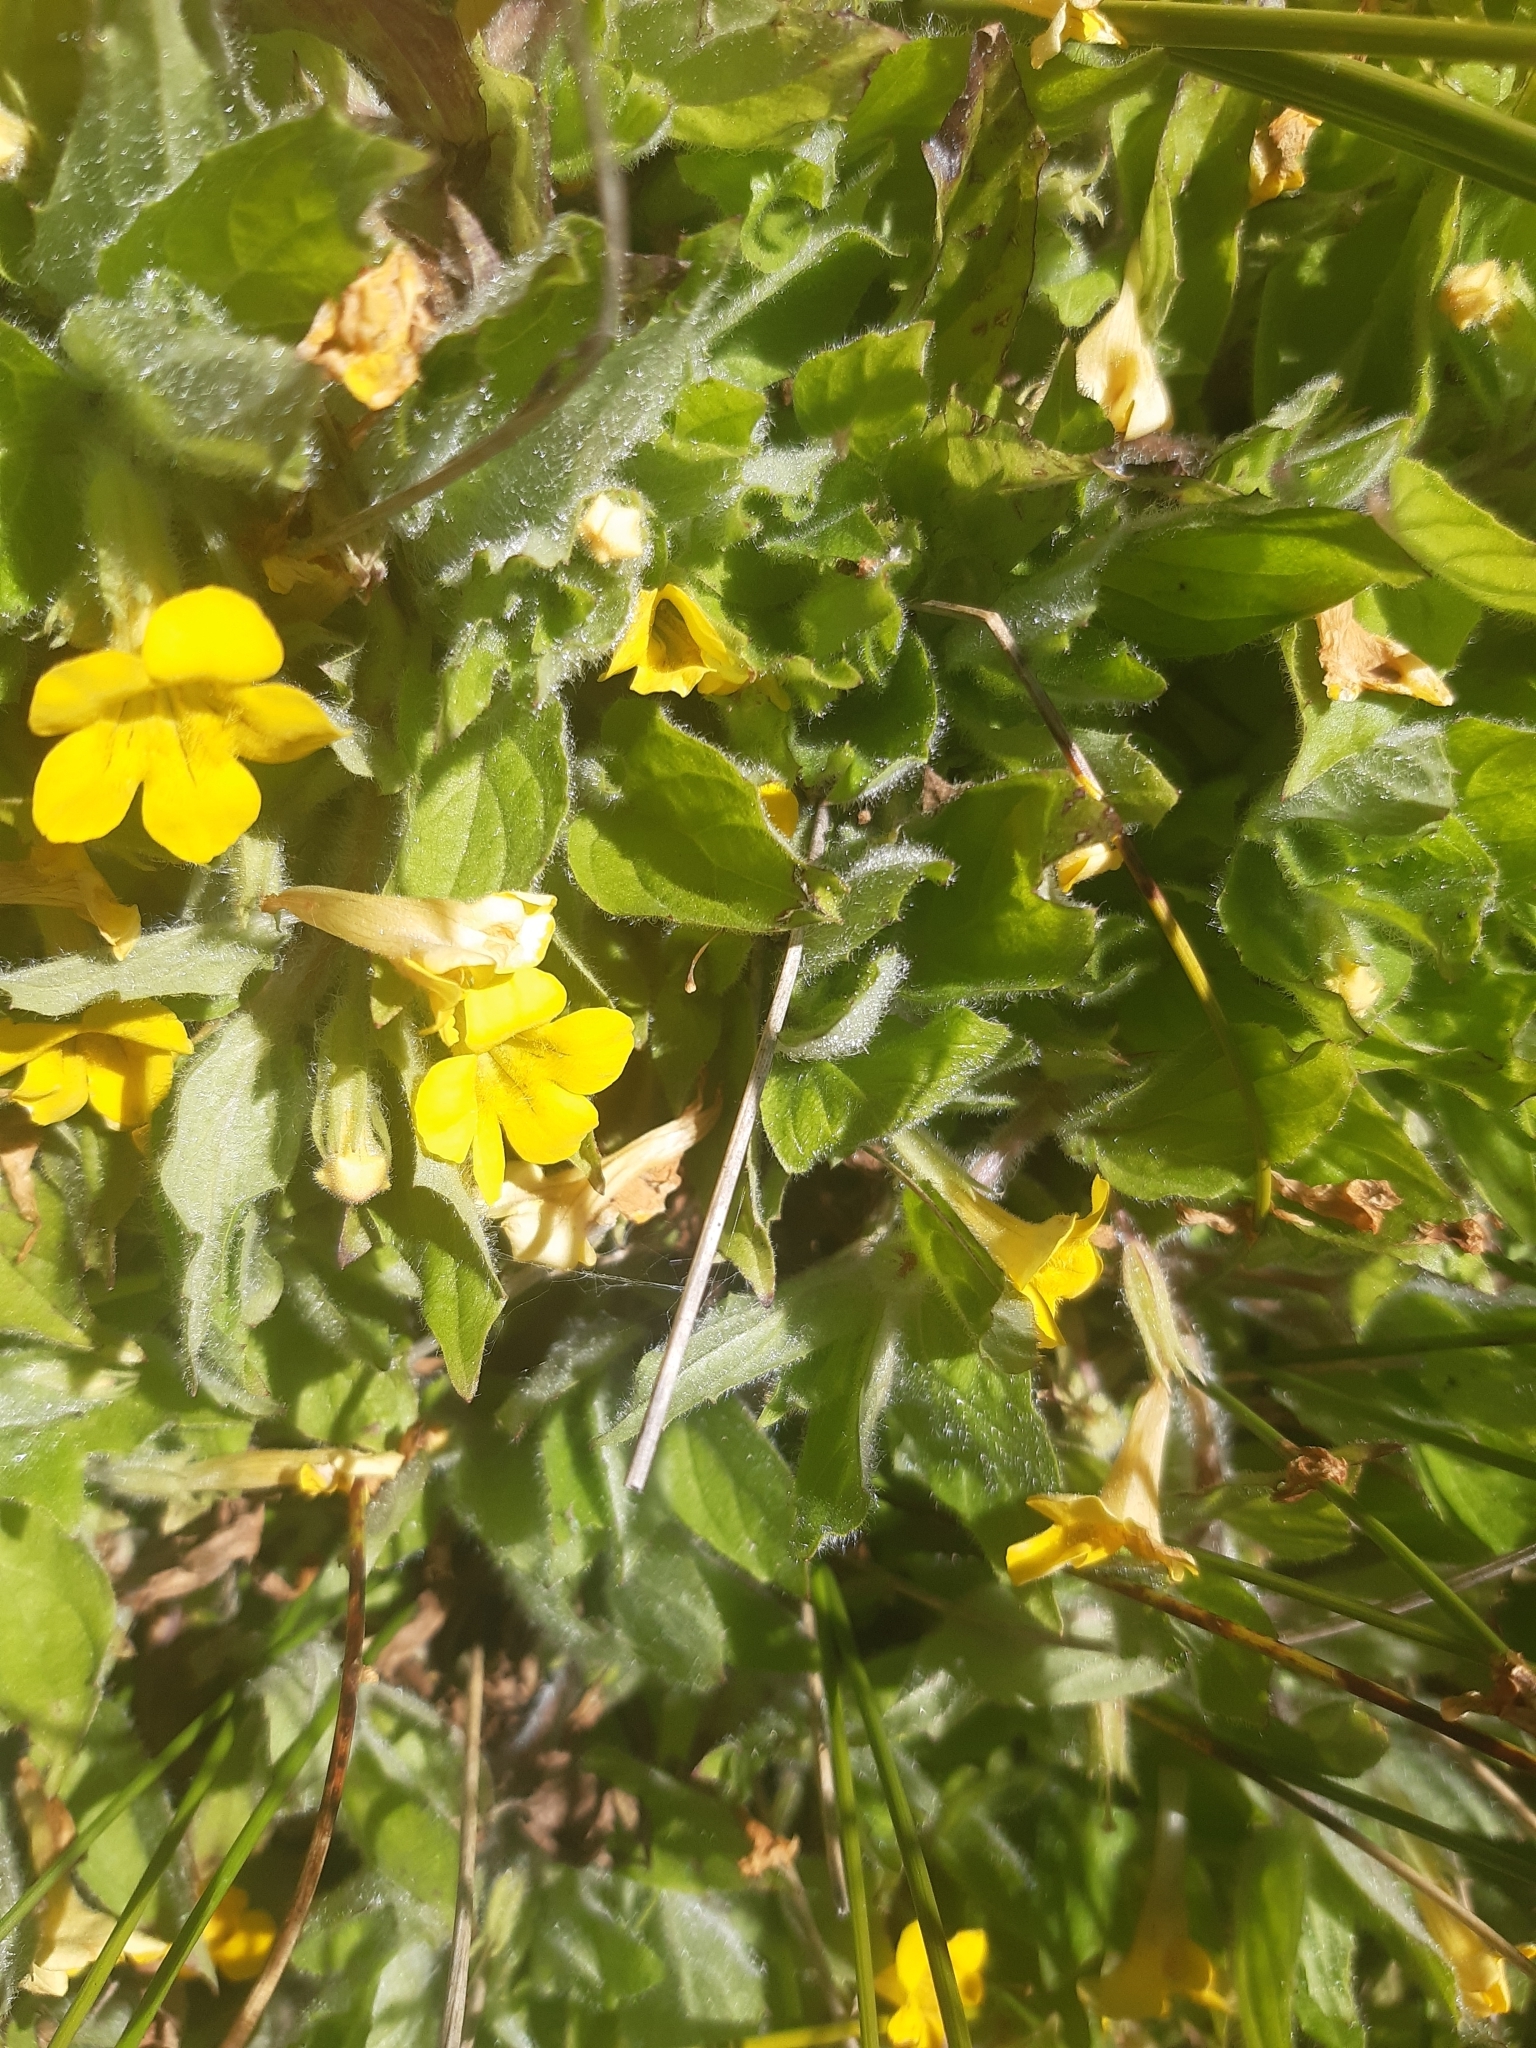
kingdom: Plantae
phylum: Tracheophyta
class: Magnoliopsida
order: Lamiales
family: Phrymaceae
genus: Erythranthe
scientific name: Erythranthe moschata
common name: Muskflower
